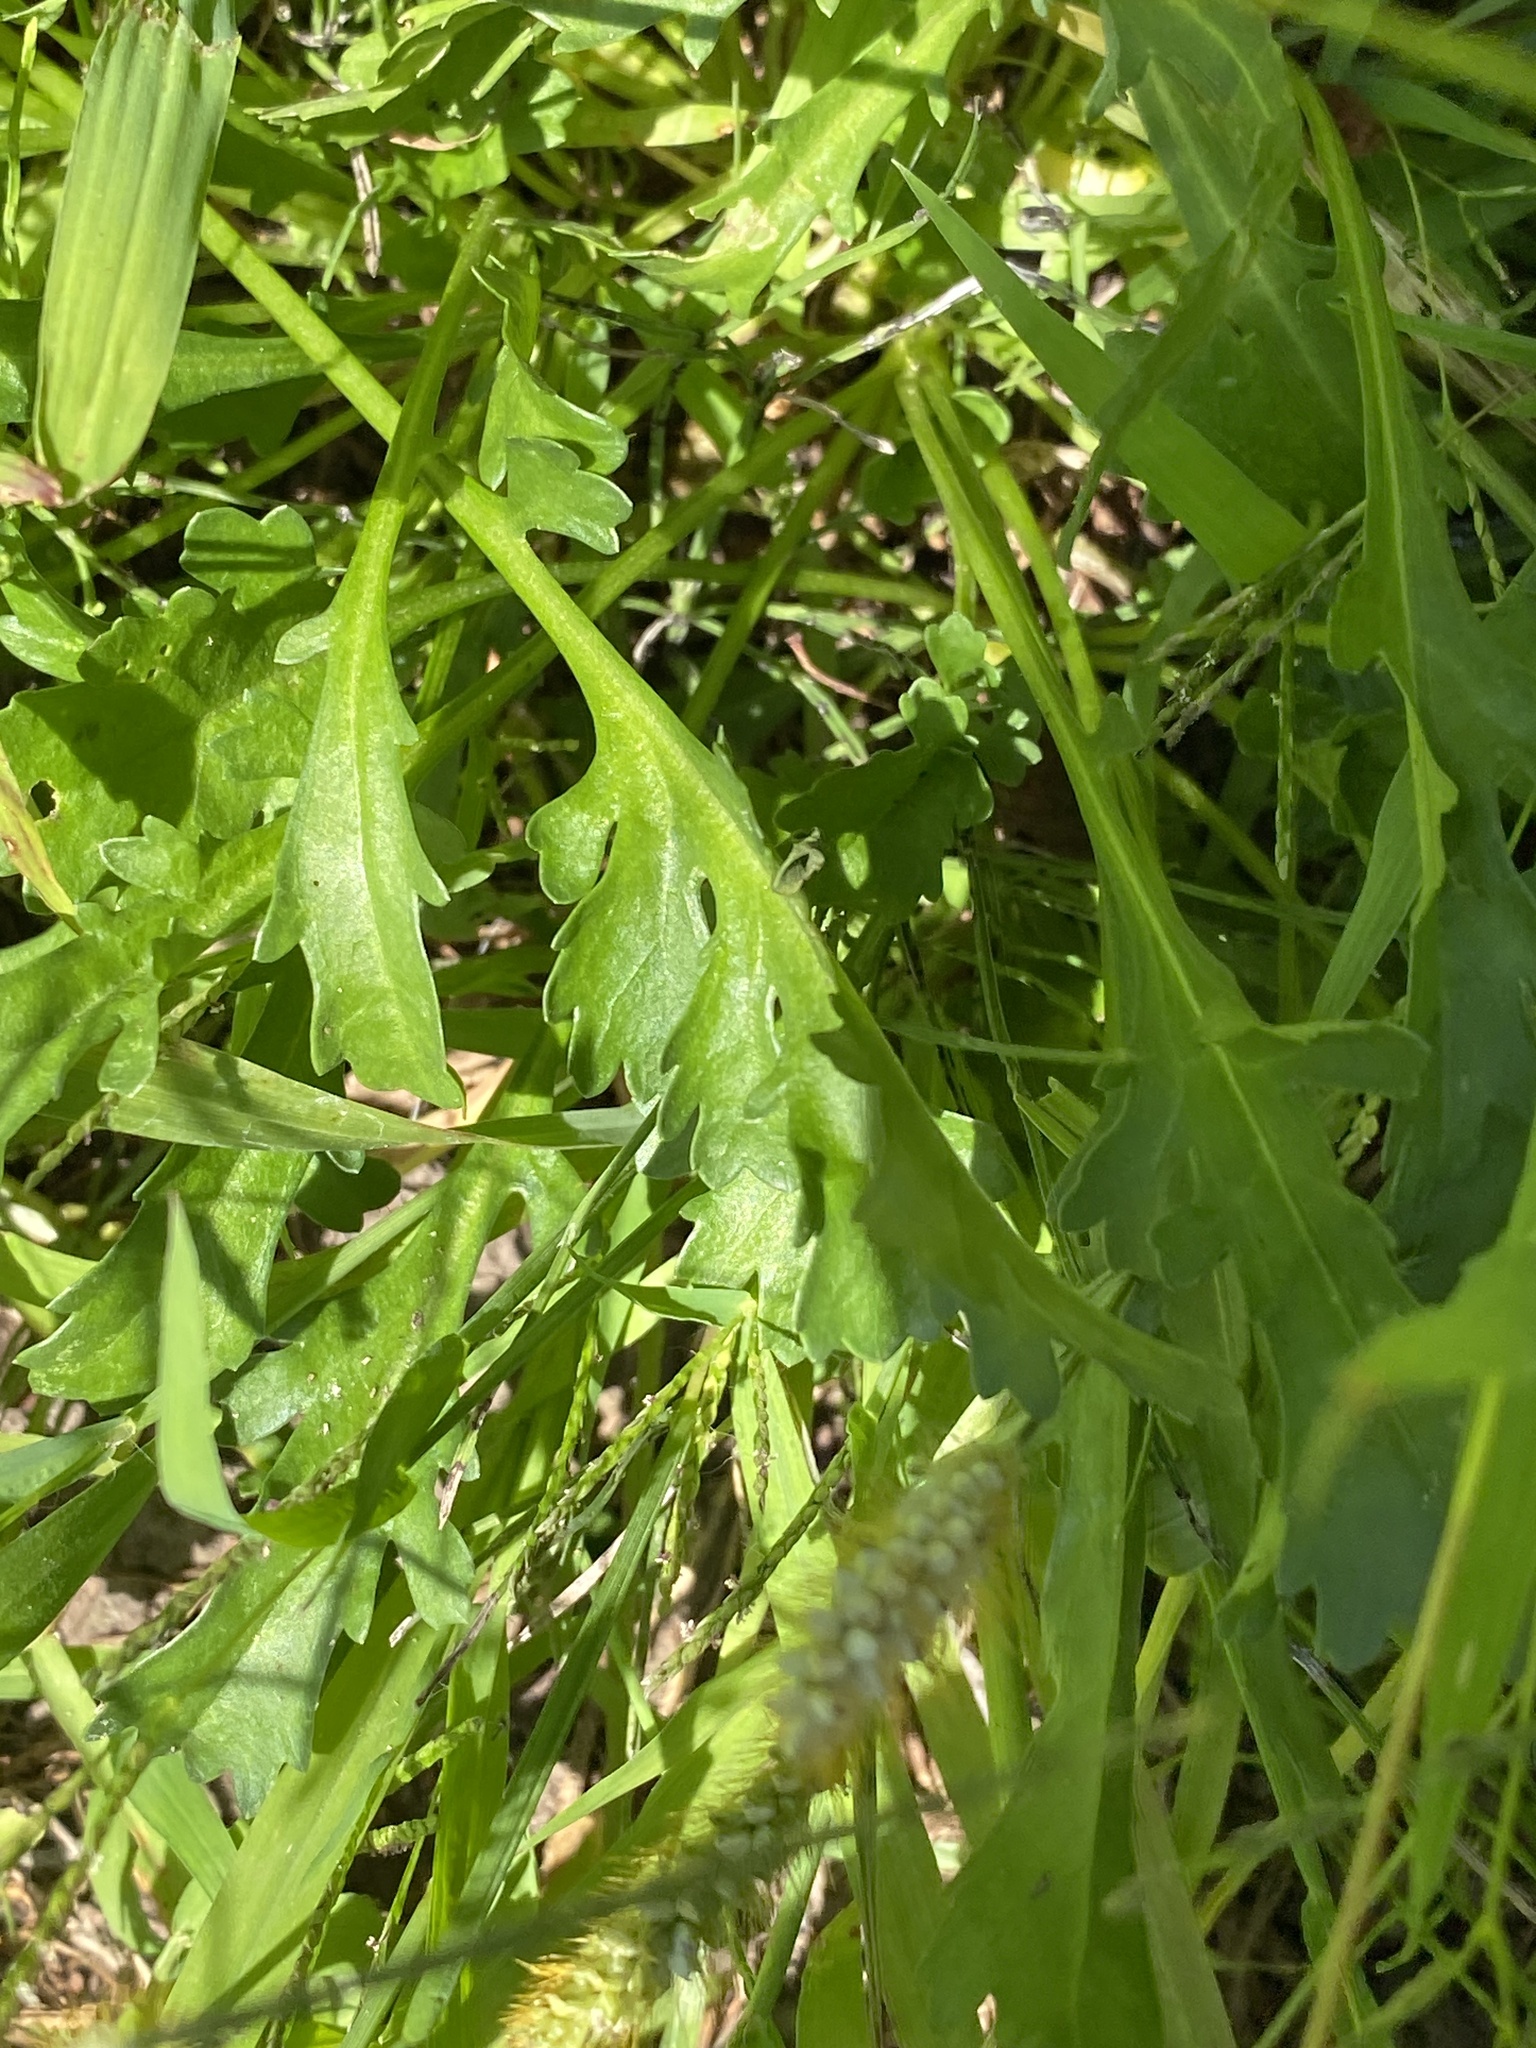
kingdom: Plantae
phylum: Tracheophyta
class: Magnoliopsida
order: Asterales
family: Asteraceae
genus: Leucanthemum
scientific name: Leucanthemum vulgare
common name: Oxeye daisy
